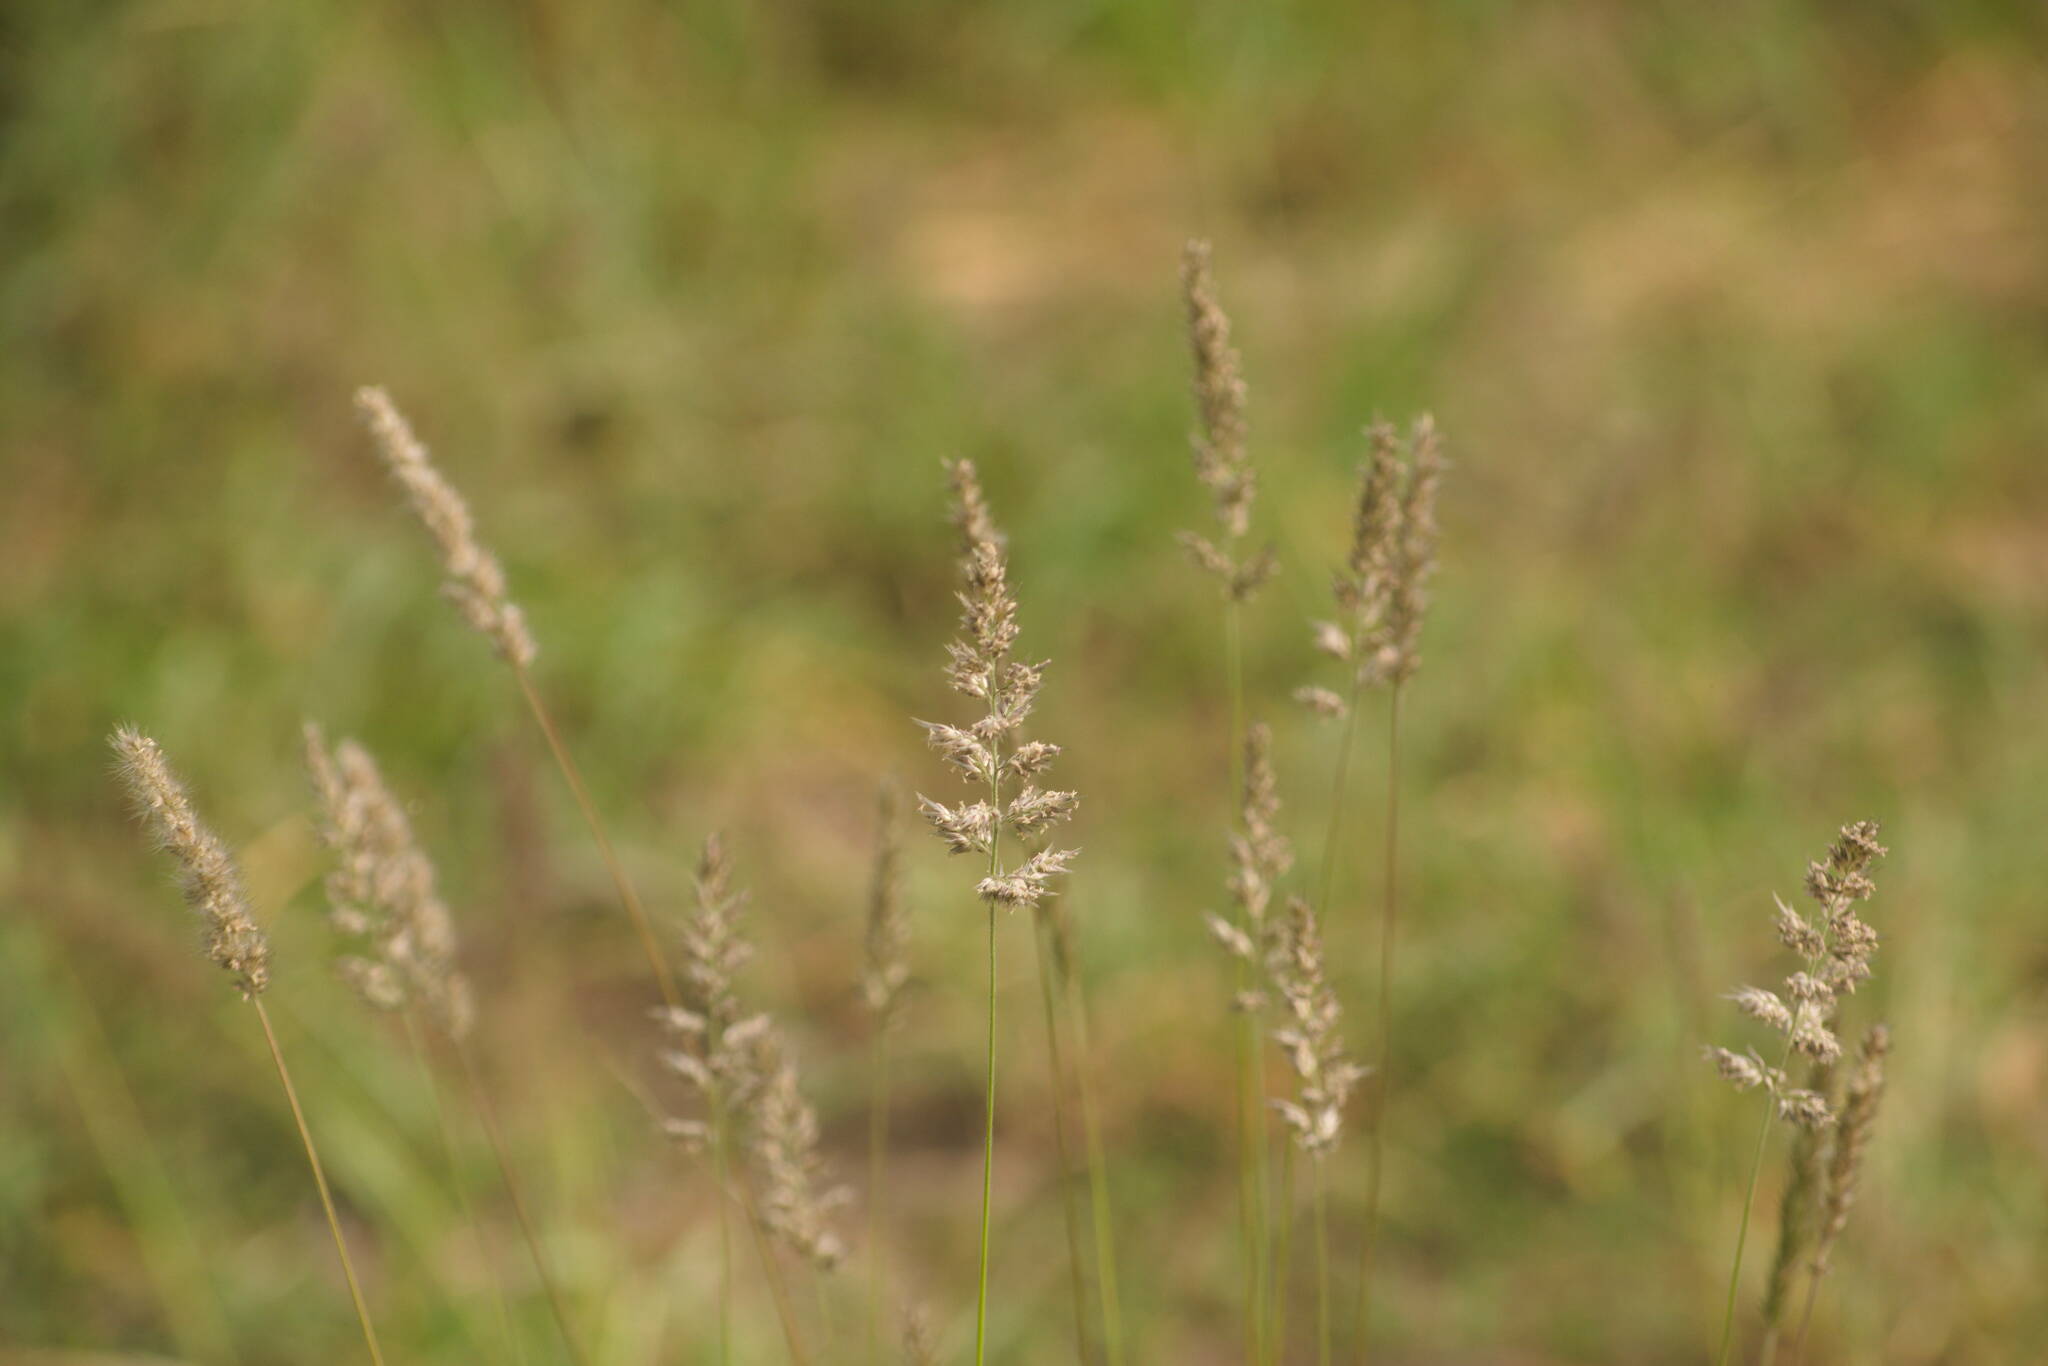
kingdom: Plantae
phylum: Tracheophyta
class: Liliopsida
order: Poales
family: Poaceae
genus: Enneapogon
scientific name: Enneapogon cenchroides
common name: Soft feather pappusgrass
